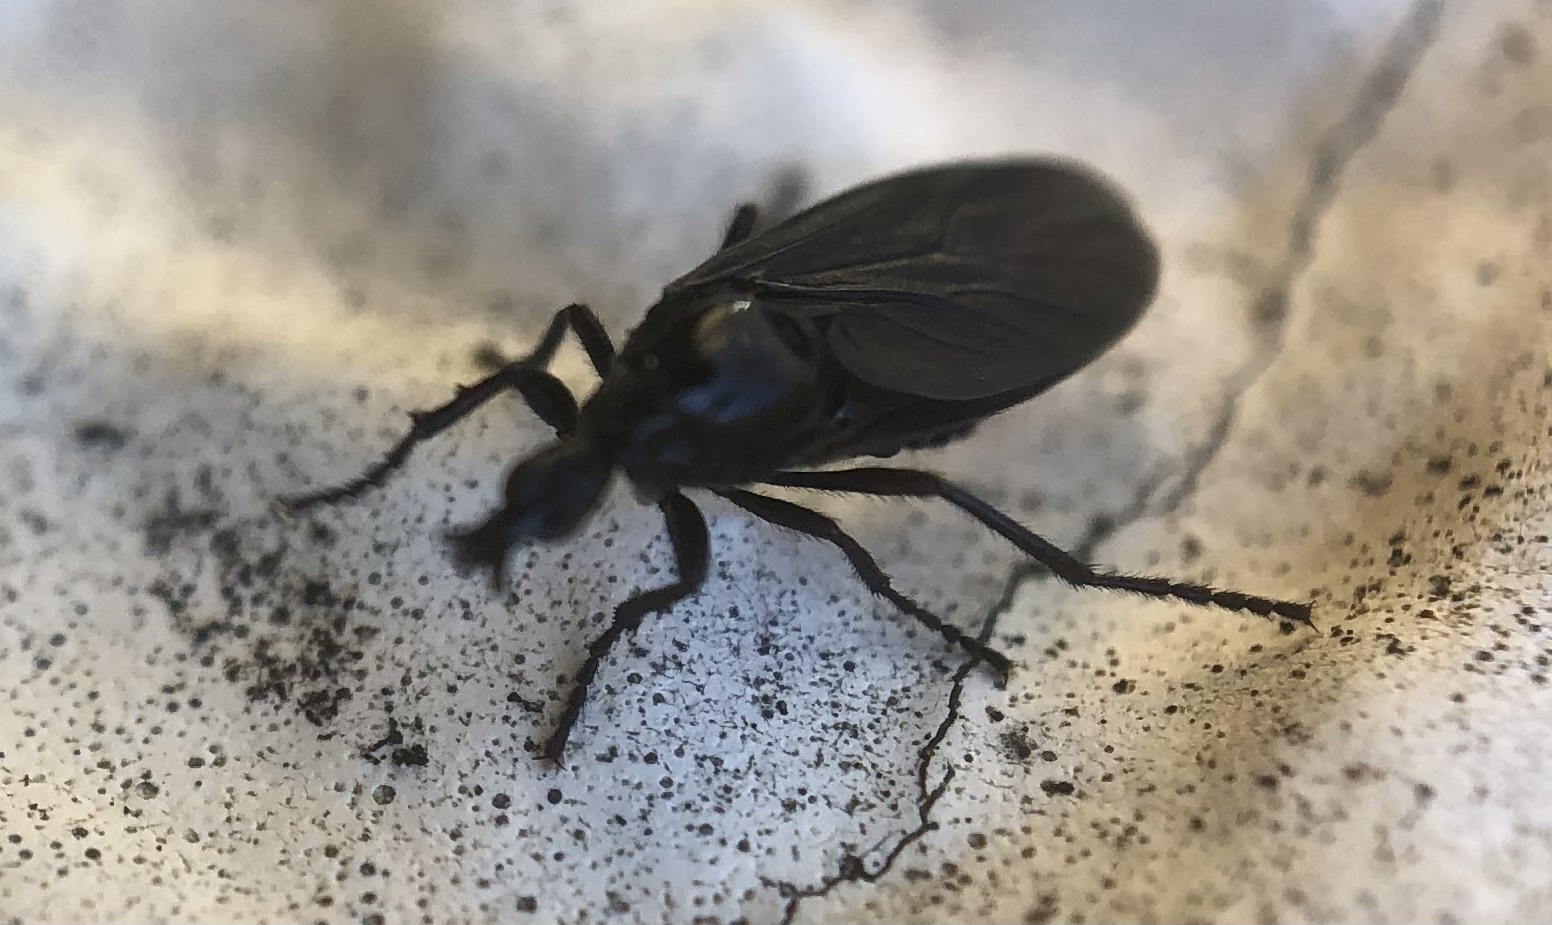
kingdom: Animalia
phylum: Arthropoda
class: Insecta
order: Diptera
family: Bibionidae
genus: Dilophus
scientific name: Dilophus orbatus
